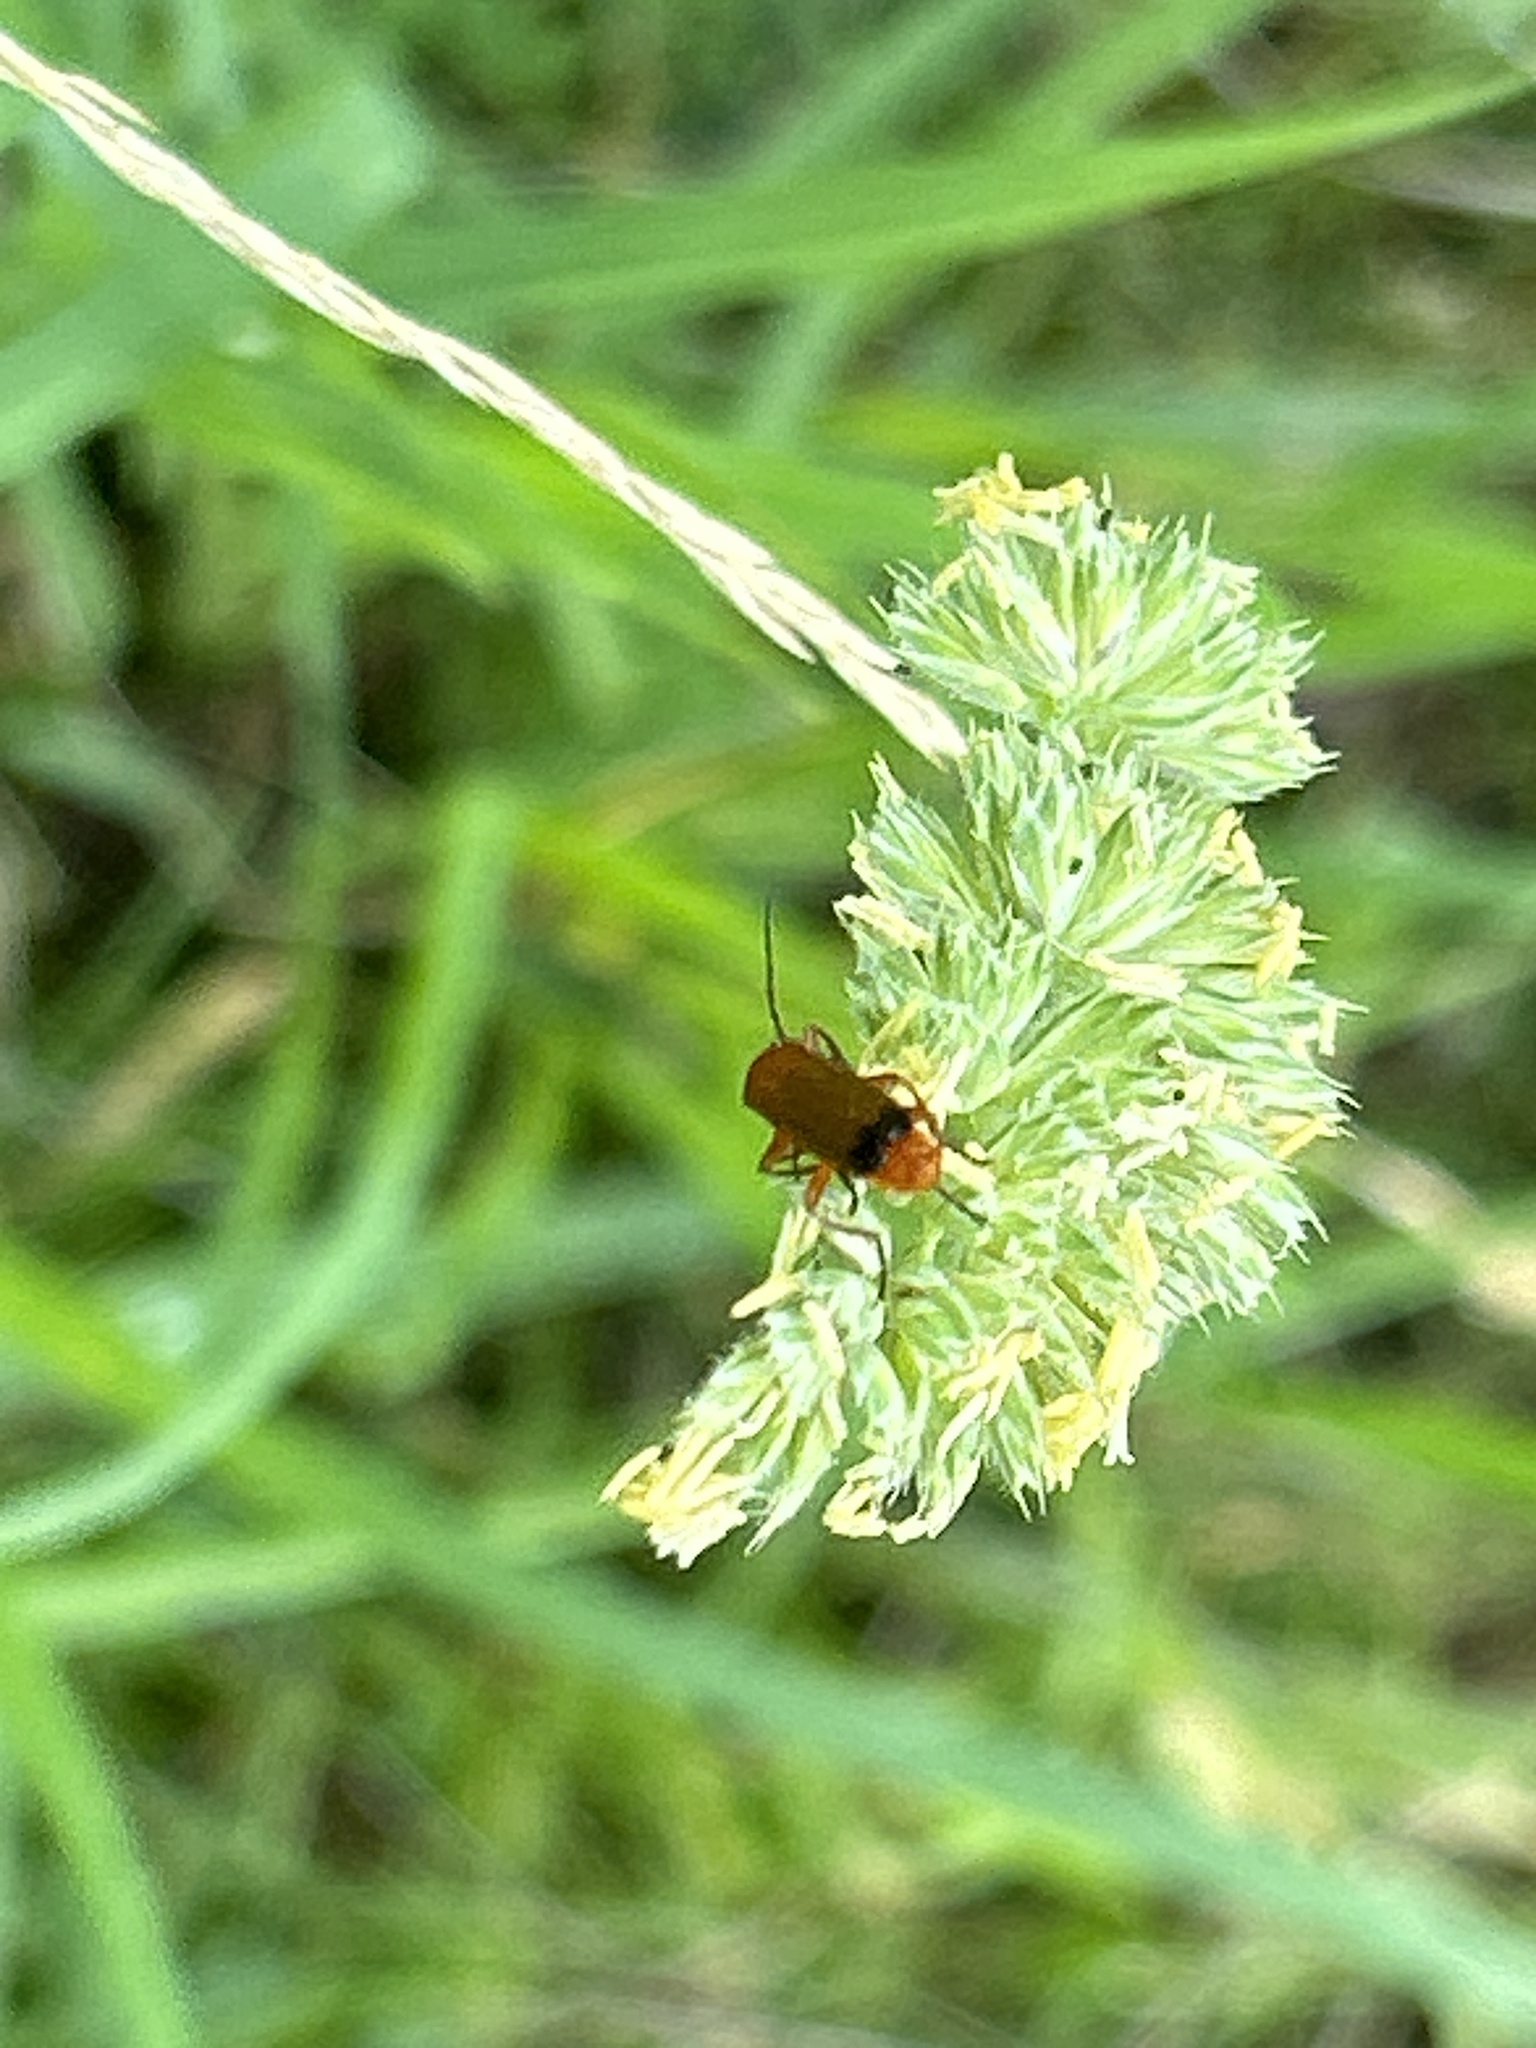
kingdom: Animalia
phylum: Arthropoda
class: Insecta
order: Coleoptera
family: Cantharidae
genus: Rhagonycha
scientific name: Rhagonycha fulva
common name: Common red soldier beetle
